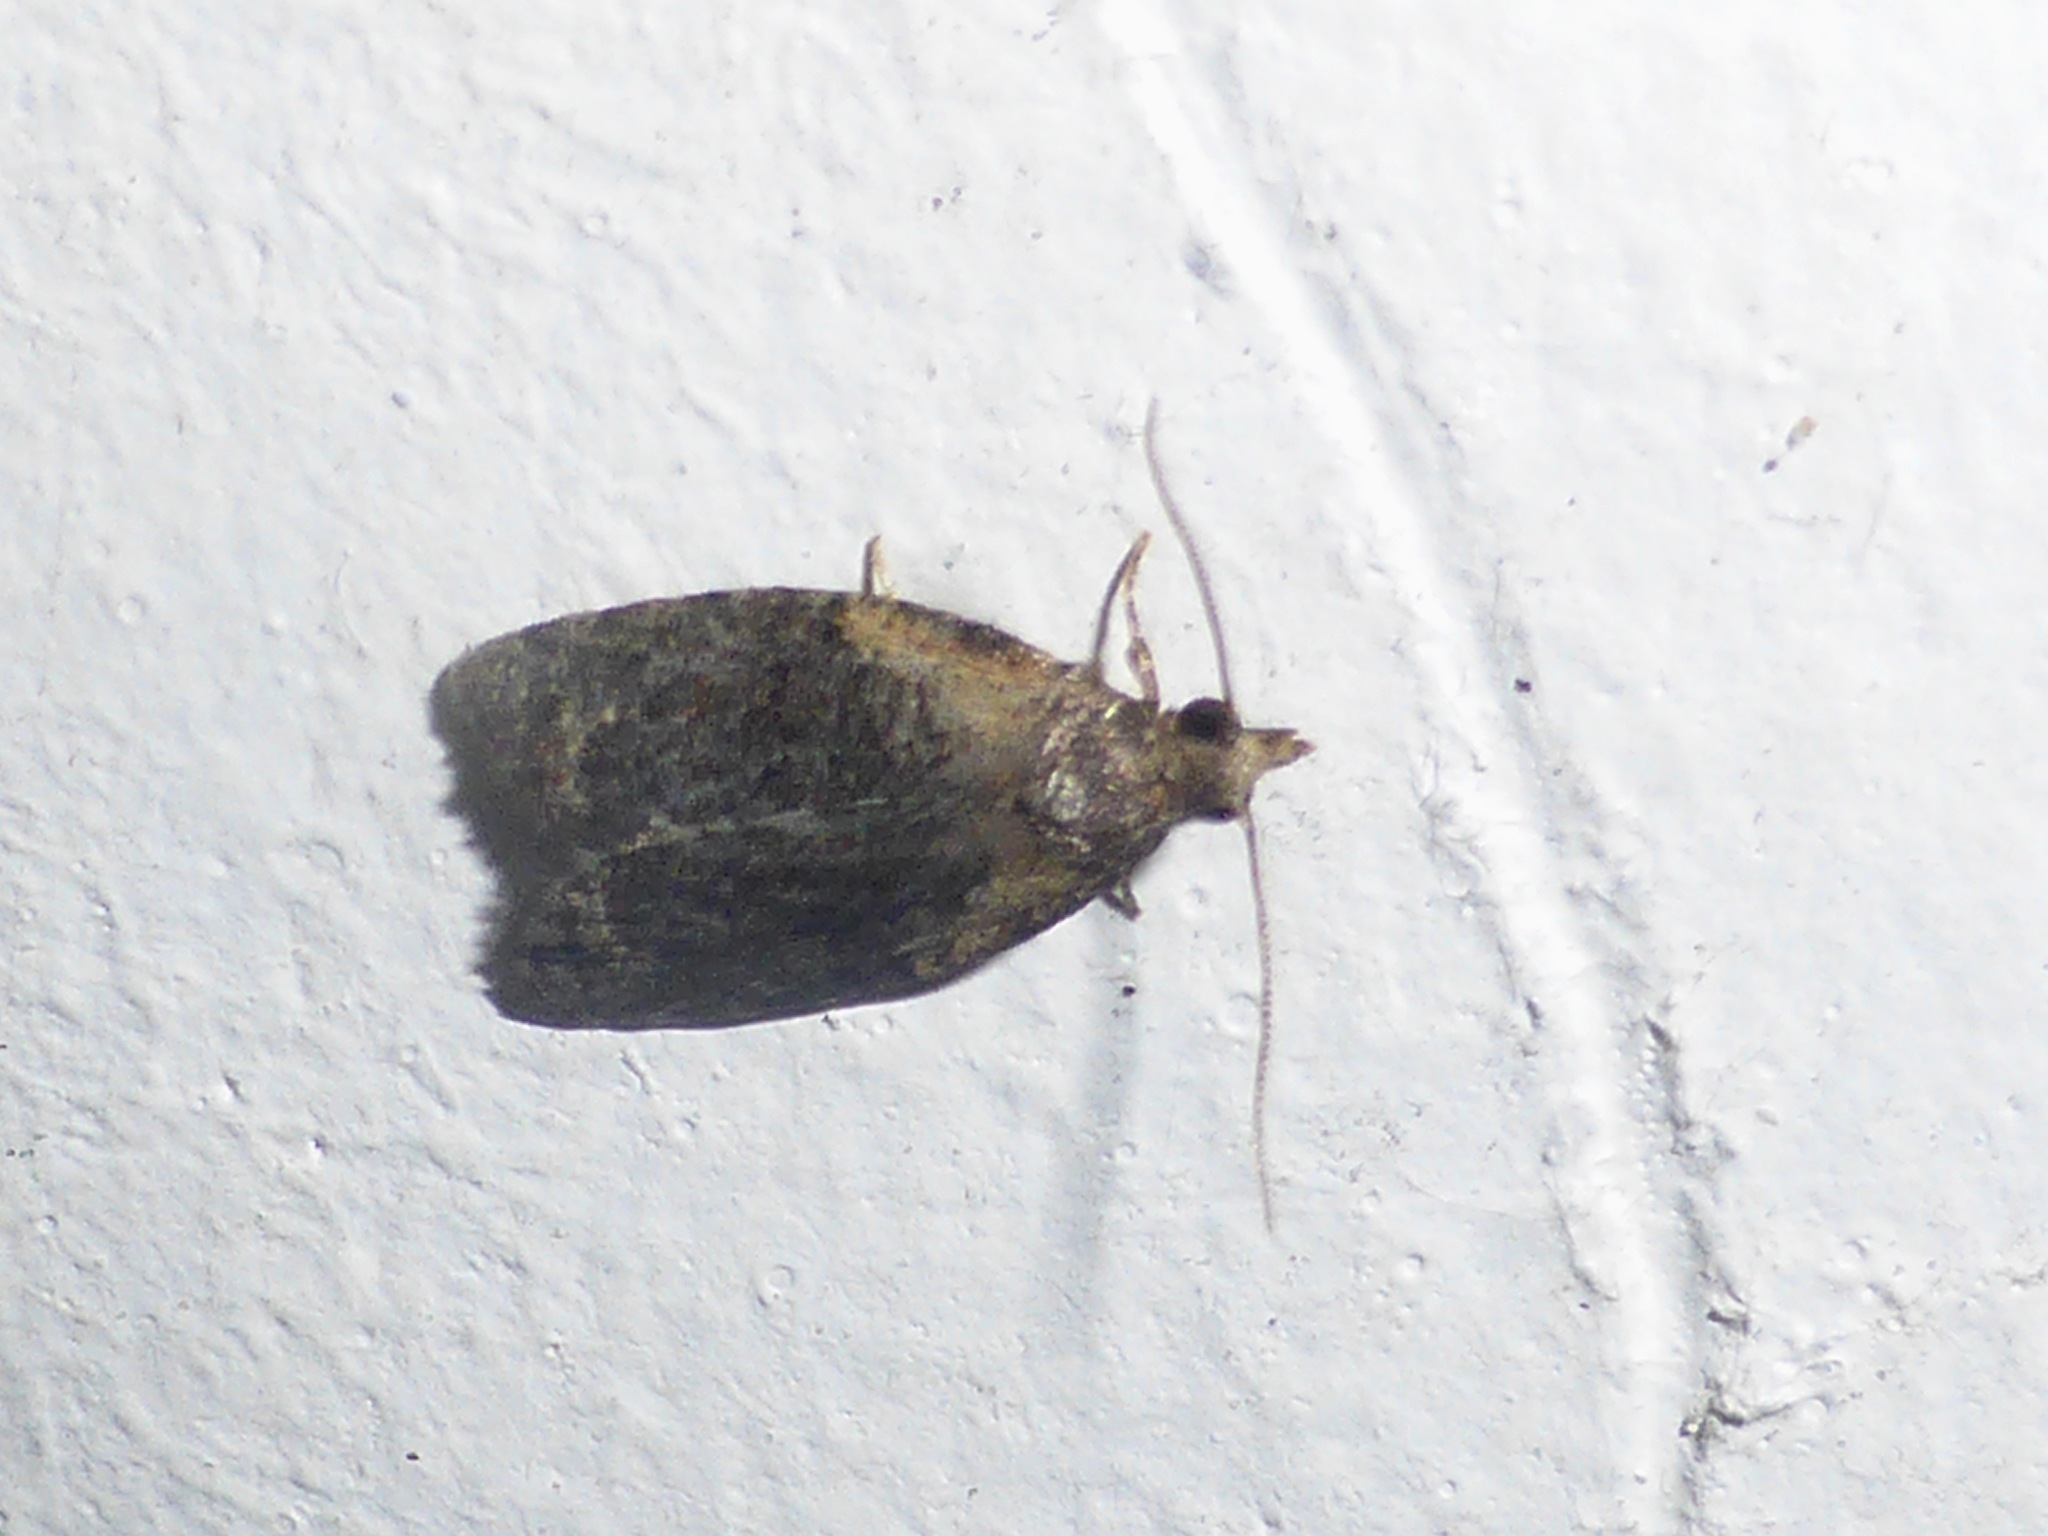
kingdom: Animalia
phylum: Arthropoda
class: Insecta
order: Lepidoptera
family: Tortricidae
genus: Capua
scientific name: Capua intractana
